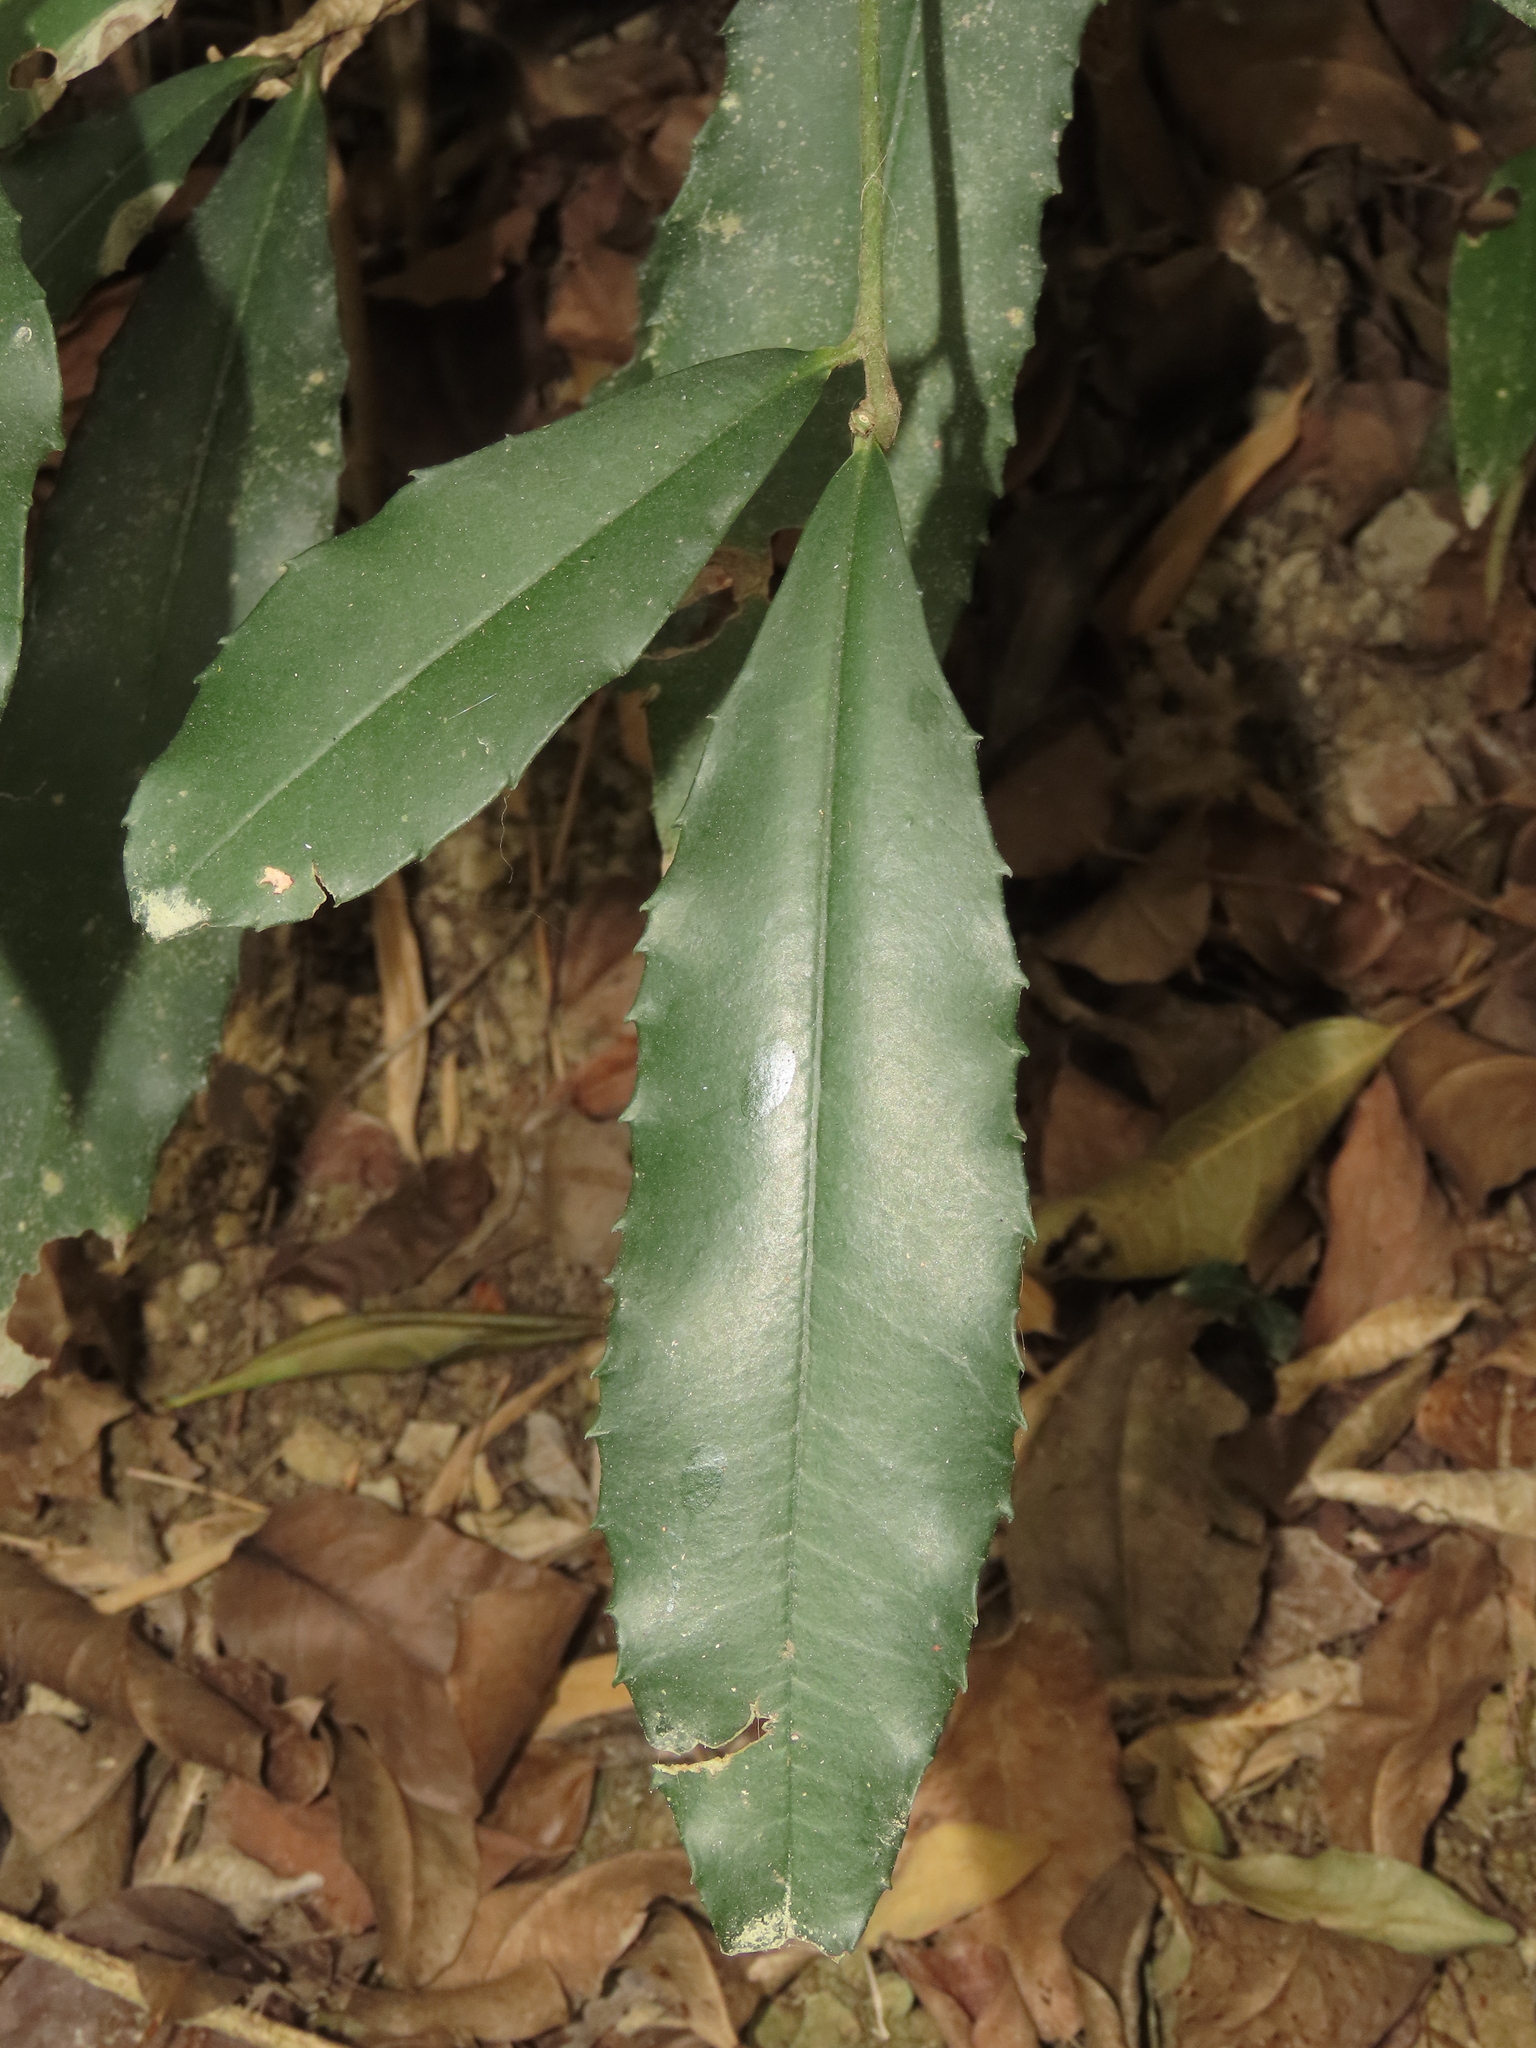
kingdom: Plantae
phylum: Tracheophyta
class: Magnoliopsida
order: Ericales
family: Primulaceae
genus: Ardisia
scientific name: Ardisia cornudentata
